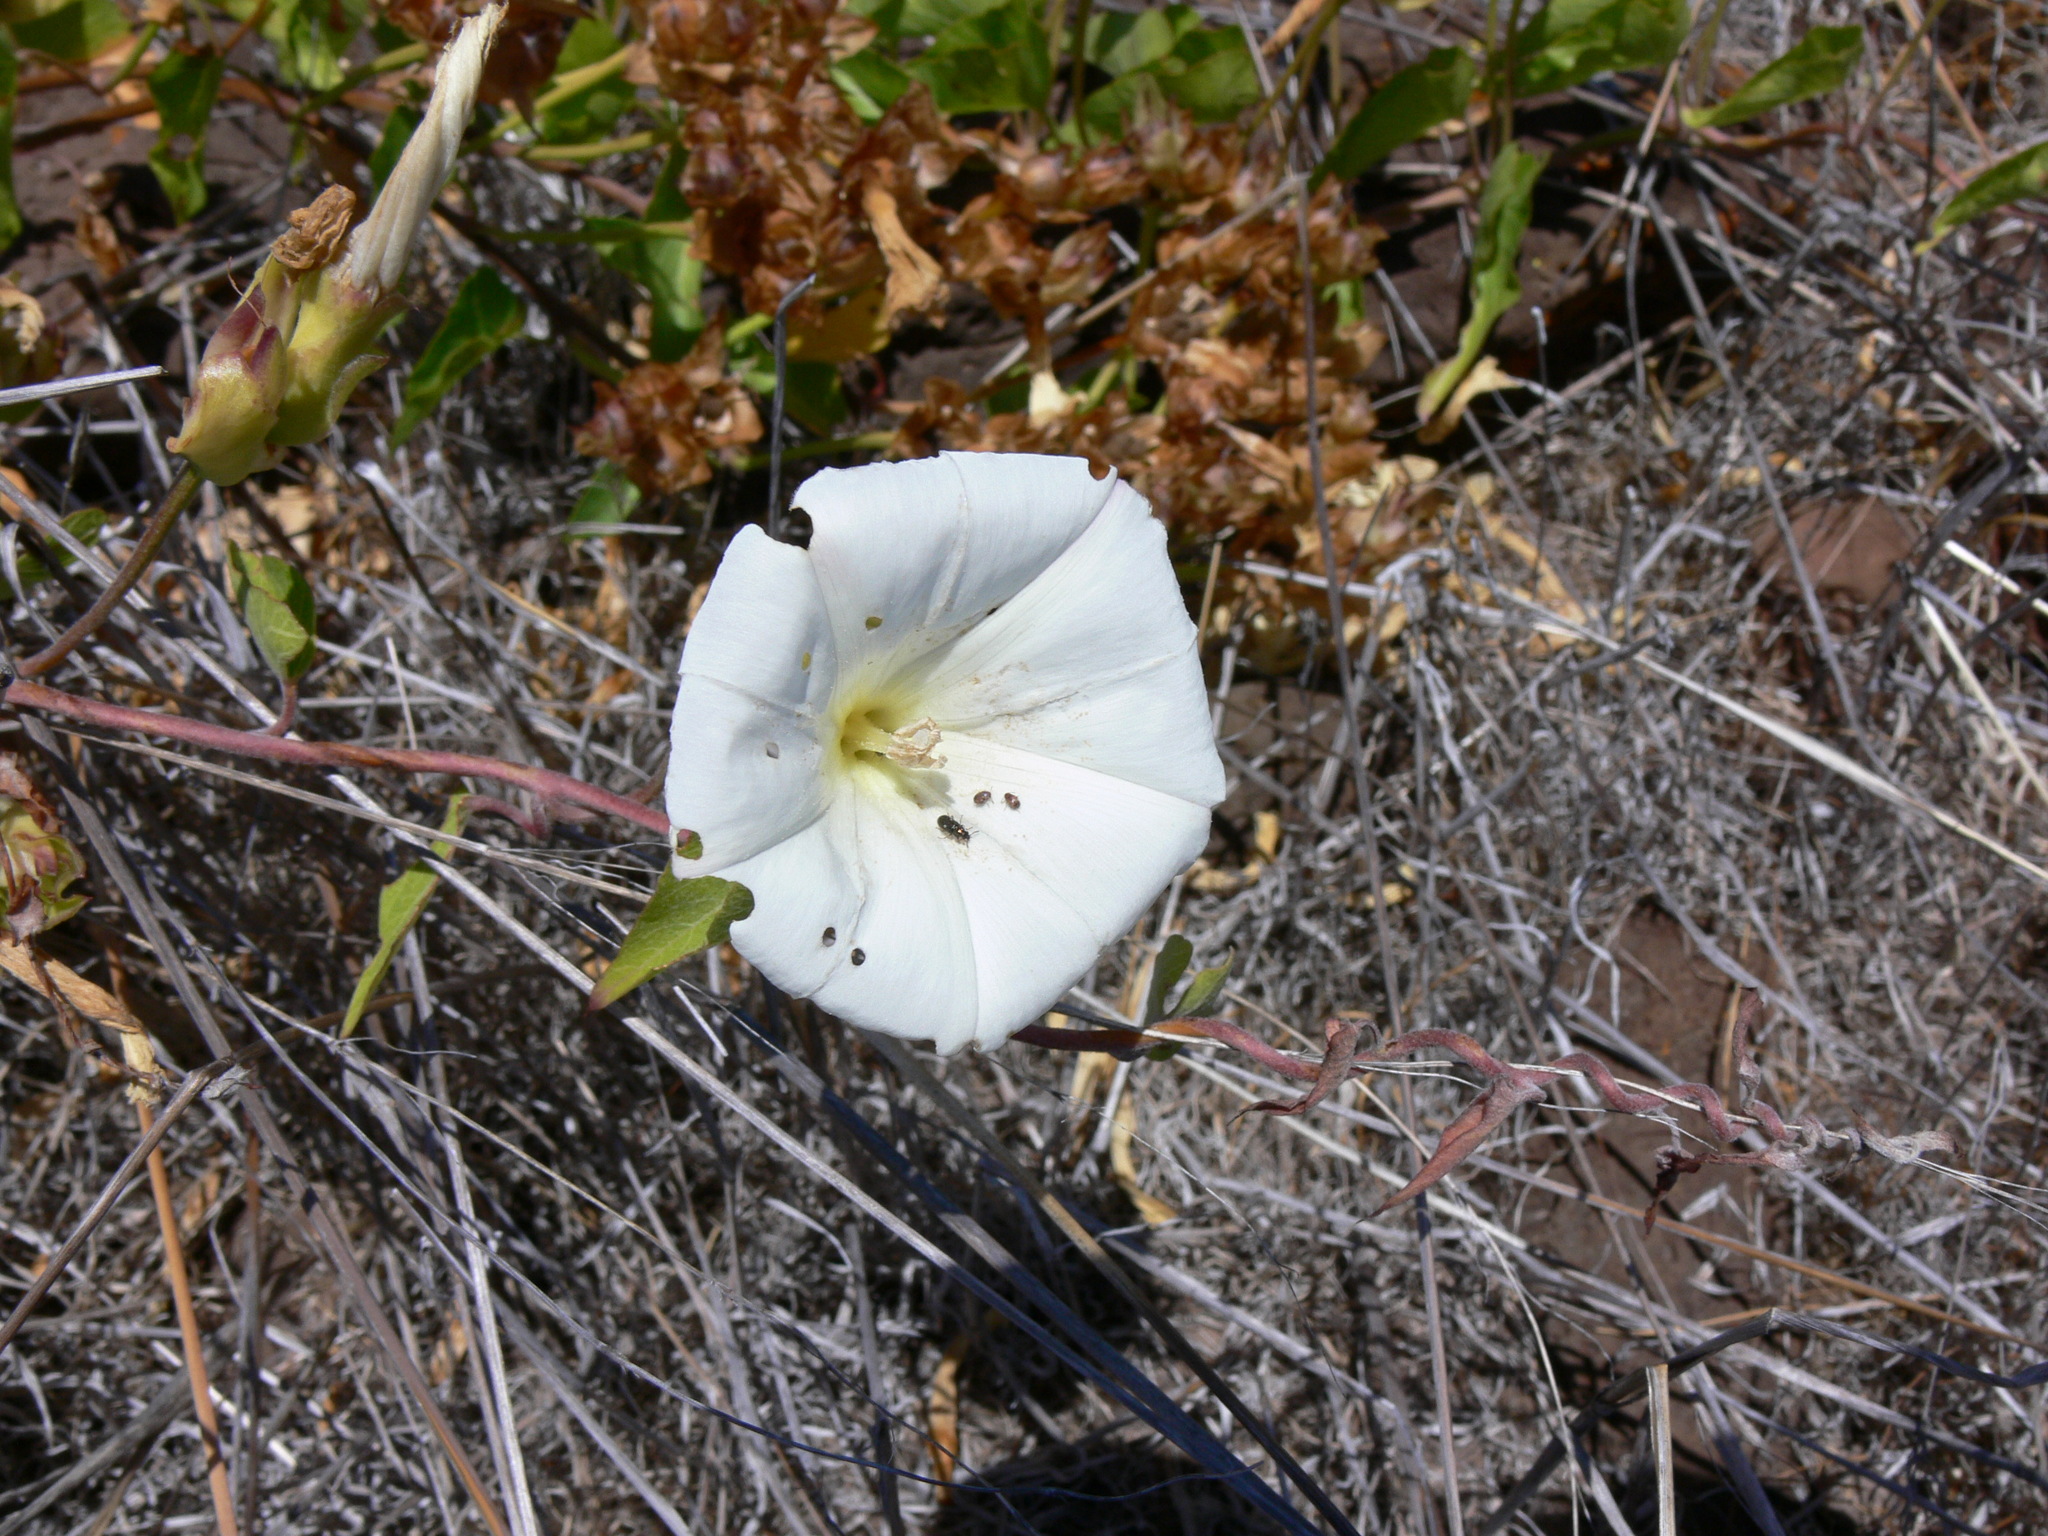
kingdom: Plantae
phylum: Tracheophyta
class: Magnoliopsida
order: Solanales
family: Convolvulaceae
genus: Calystegia
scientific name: Calystegia macrostegia
